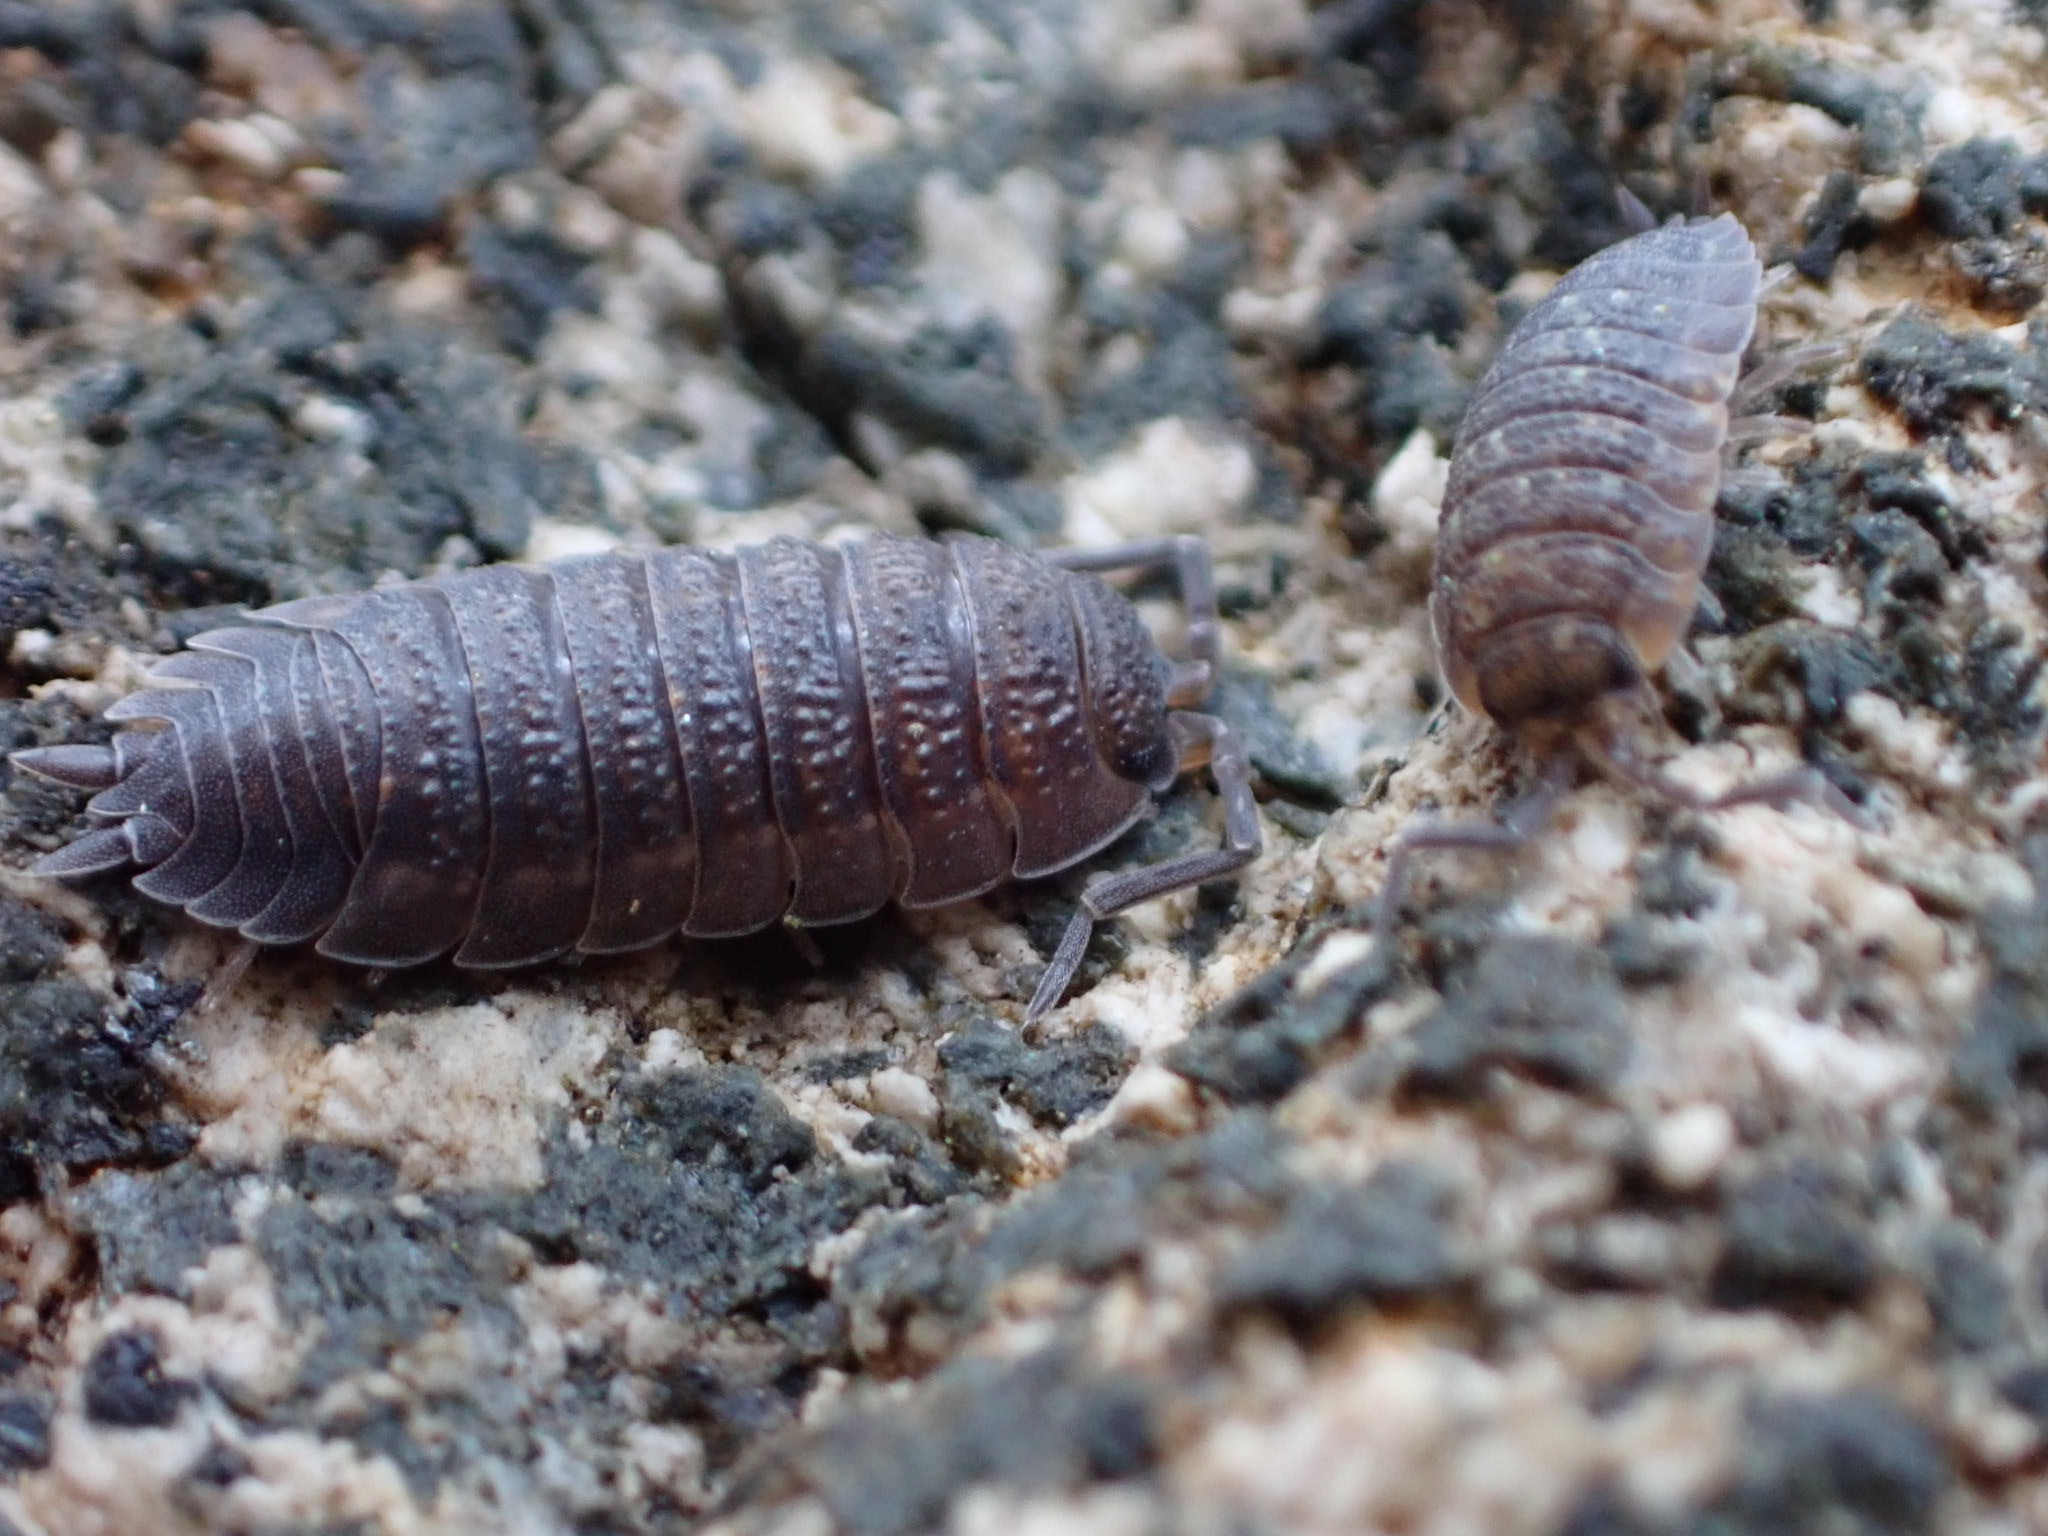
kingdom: Animalia
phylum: Arthropoda
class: Malacostraca
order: Isopoda
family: Porcellionidae
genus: Porcellio
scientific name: Porcellio scaber
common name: Common rough woodlouse
